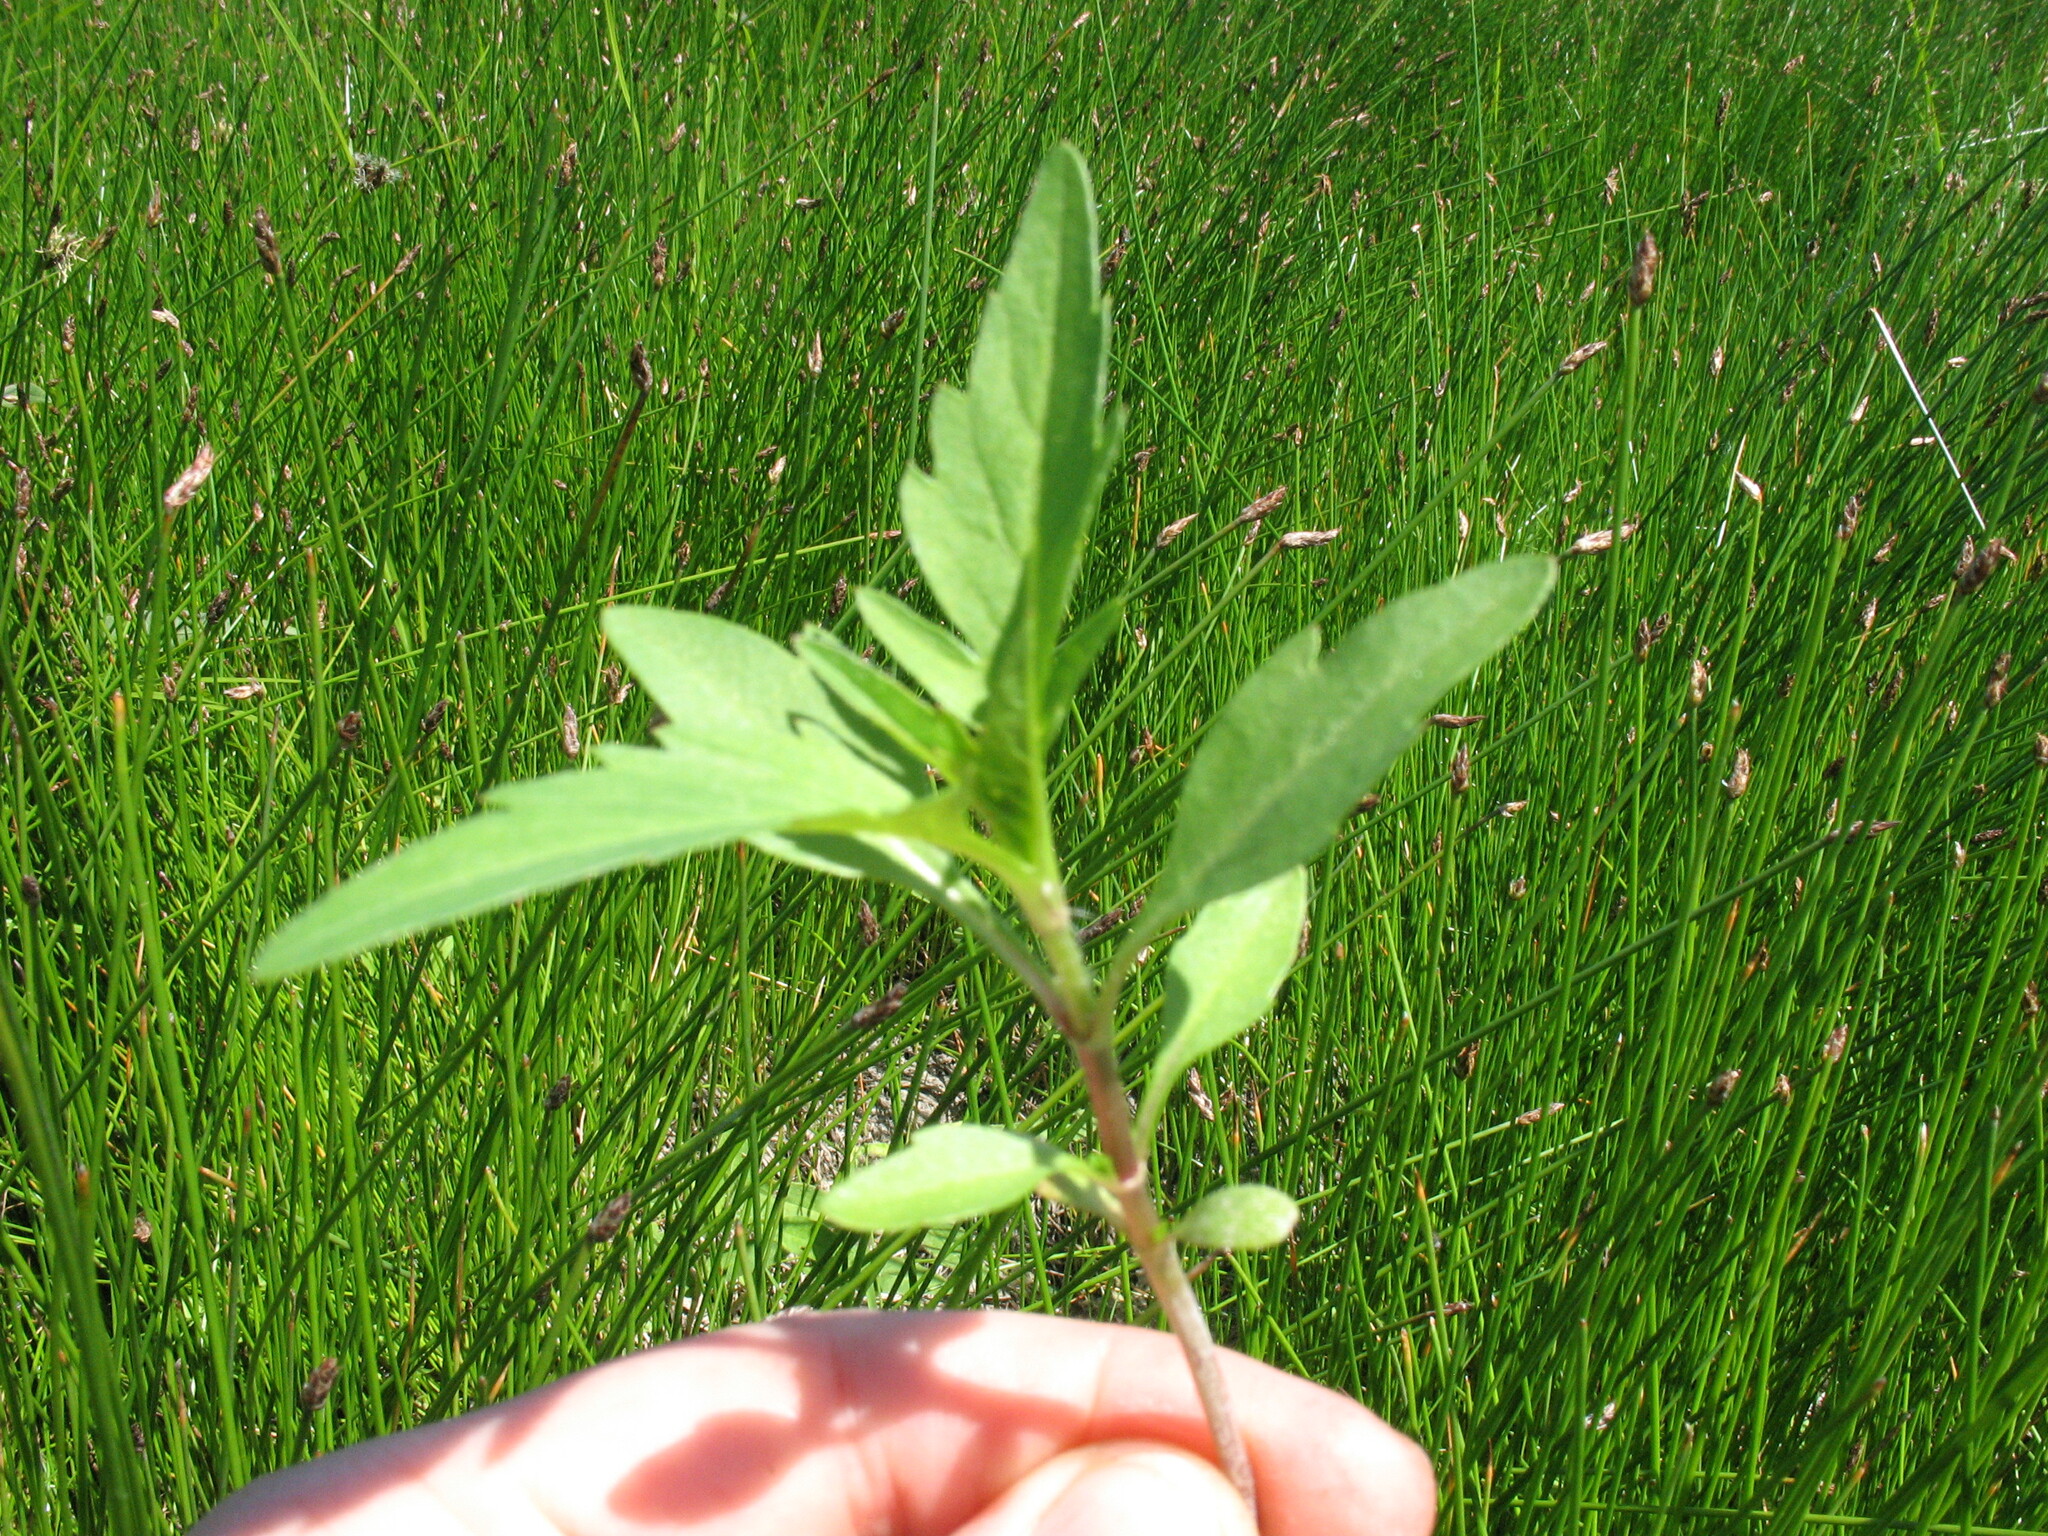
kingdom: Plantae
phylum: Tracheophyta
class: Magnoliopsida
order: Asterales
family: Asteraceae
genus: Bidens
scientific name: Bidens tripartita
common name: Trifid bur-marigold
